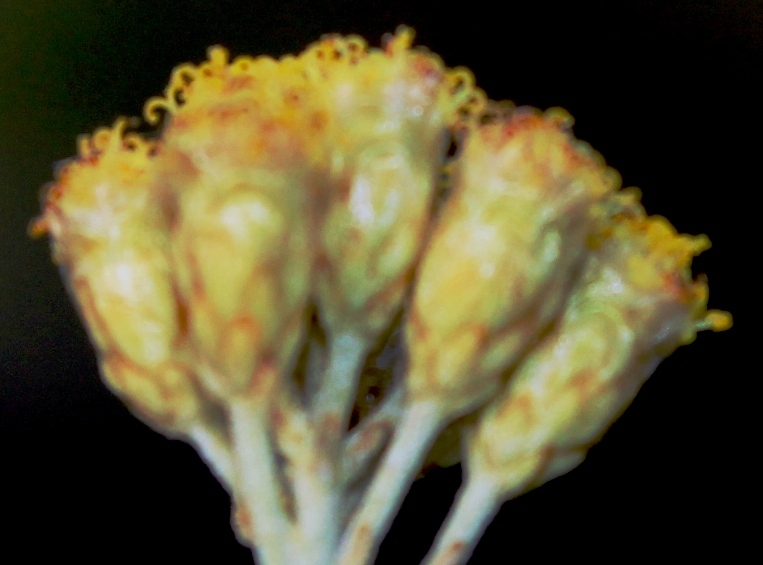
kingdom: Plantae
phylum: Tracheophyta
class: Magnoliopsida
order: Asterales
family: Asteraceae
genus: Pentzia
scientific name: Pentzia elegans
